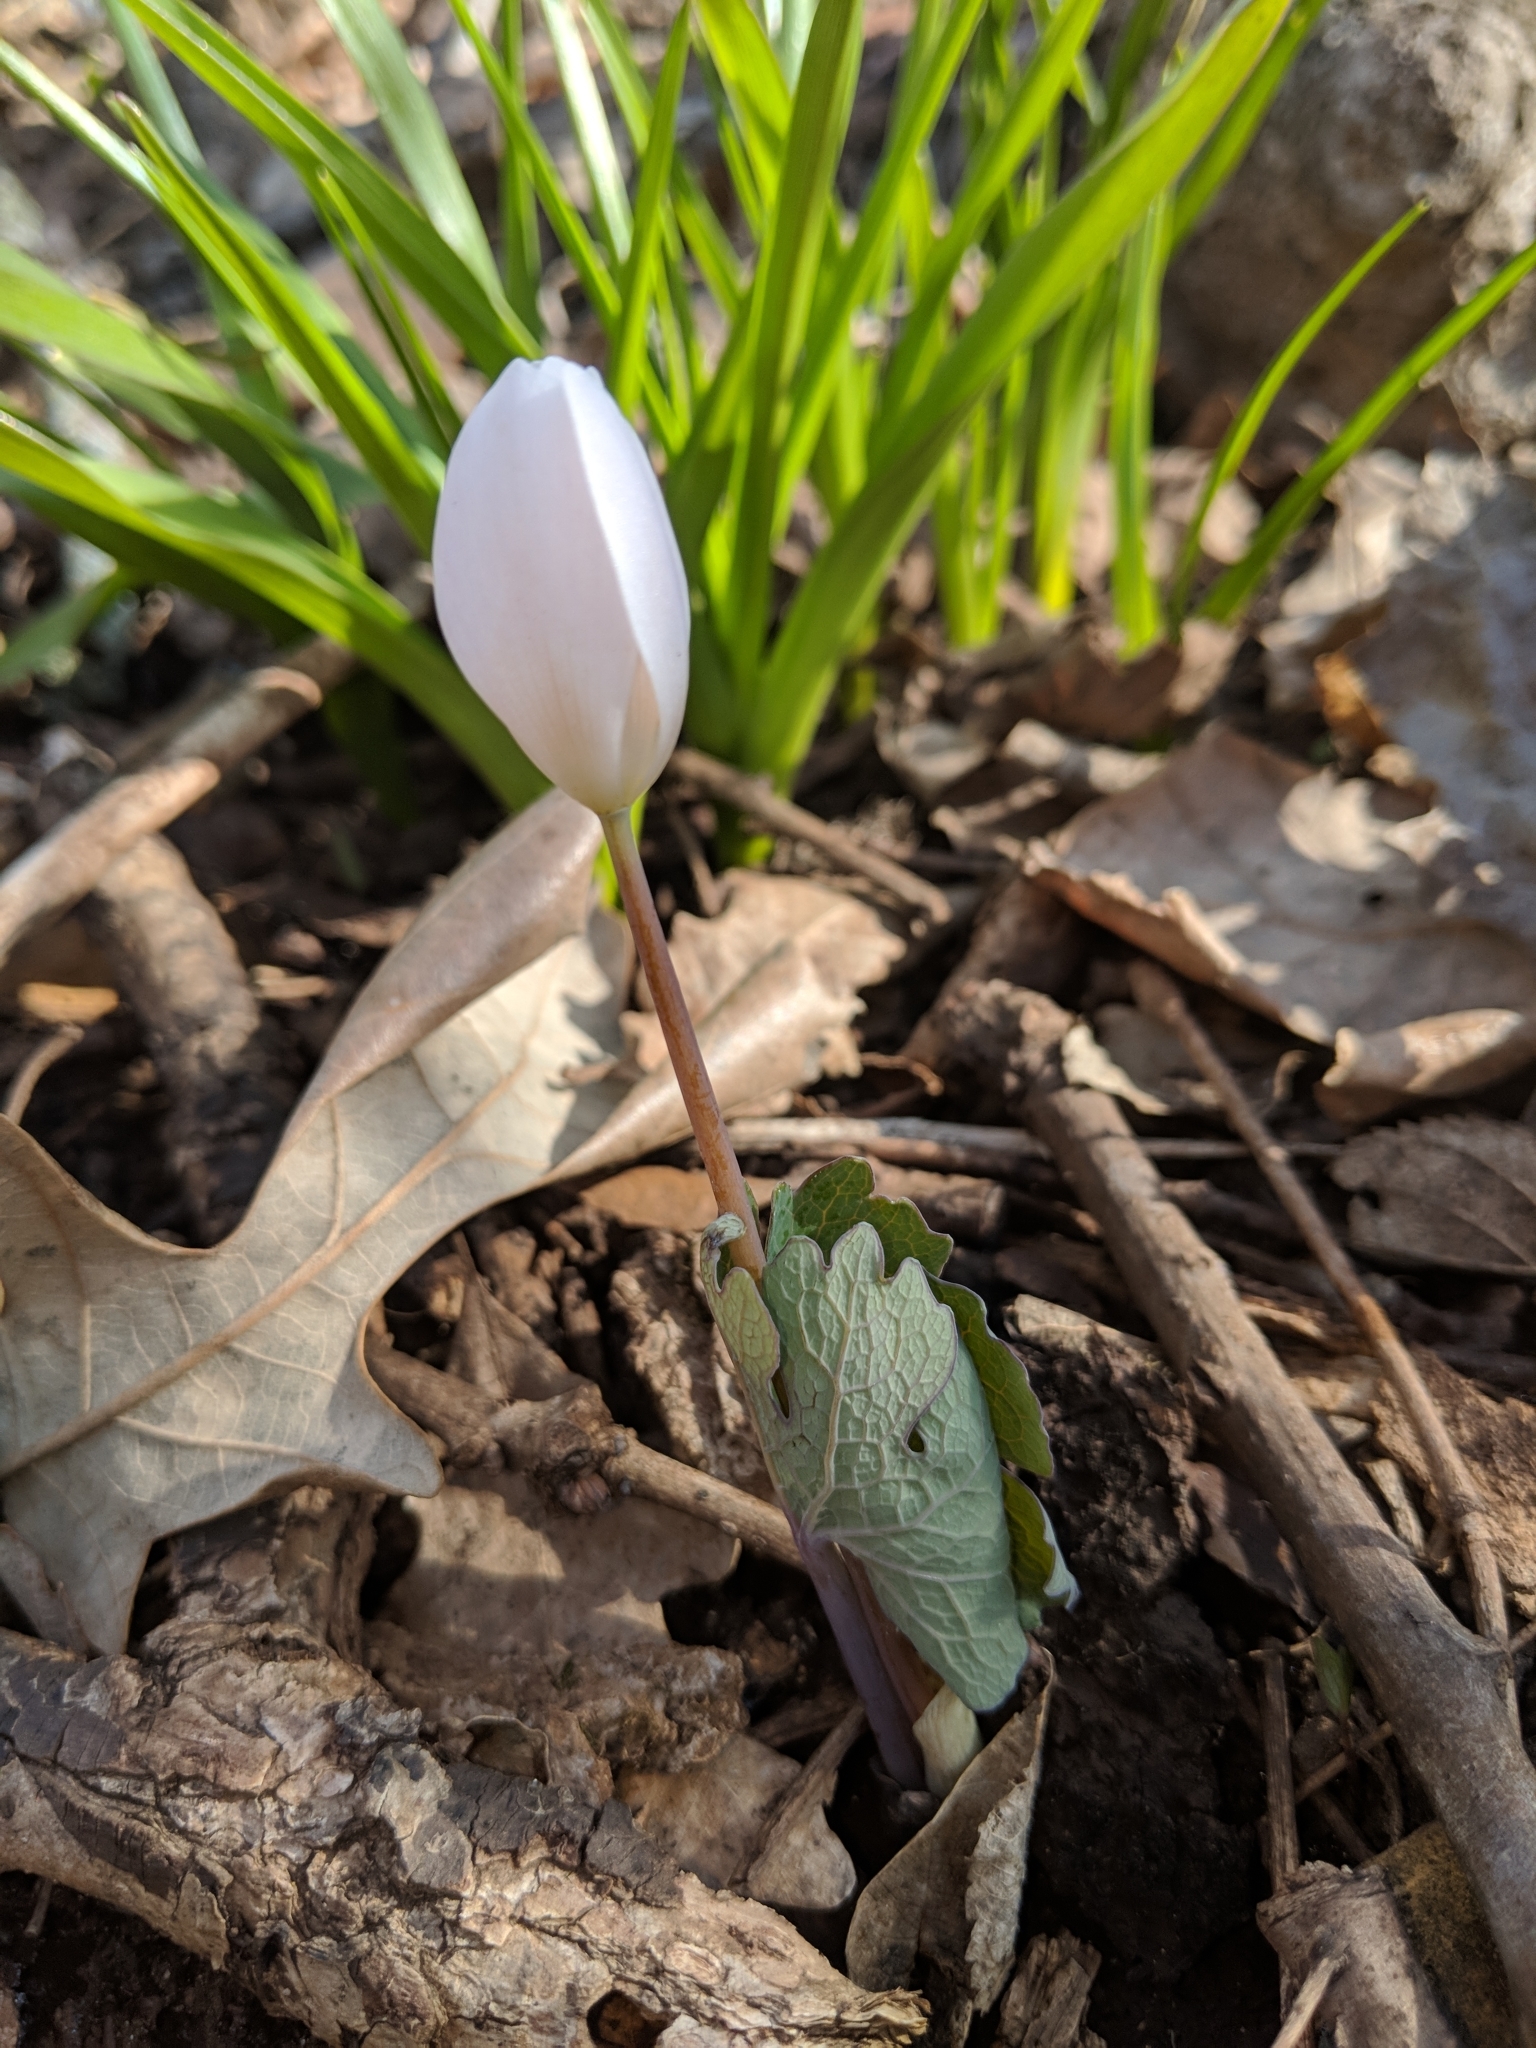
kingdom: Plantae
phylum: Tracheophyta
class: Magnoliopsida
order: Ranunculales
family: Papaveraceae
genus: Sanguinaria
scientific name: Sanguinaria canadensis
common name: Bloodroot
